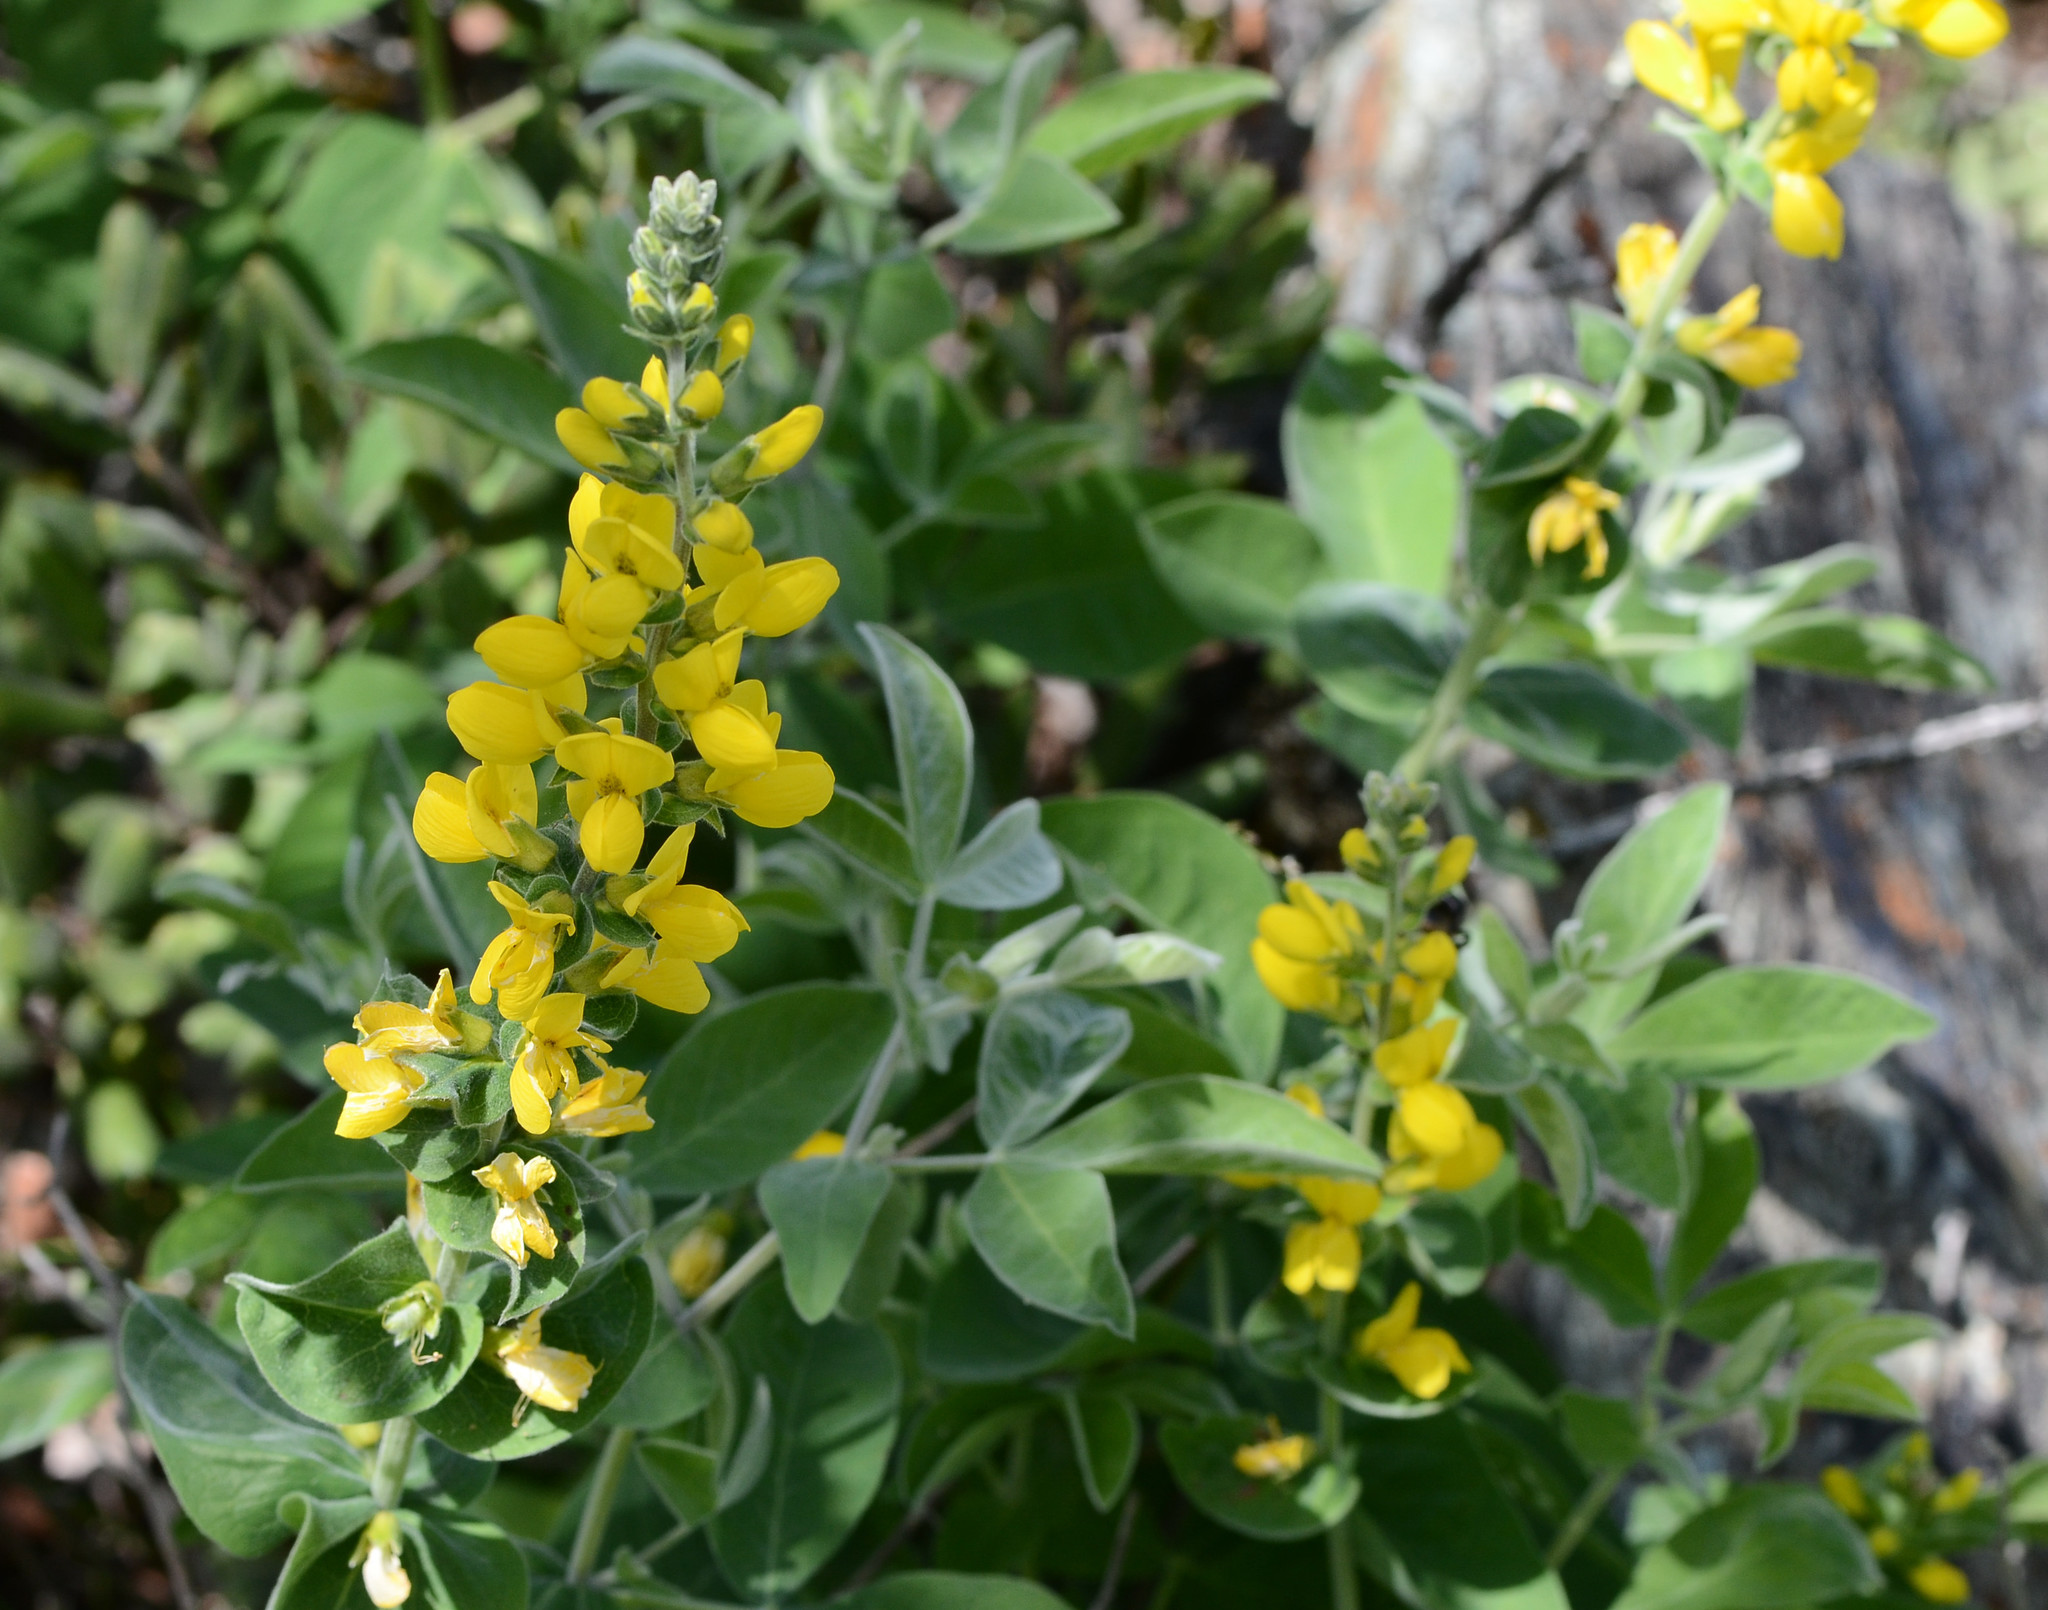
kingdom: Plantae
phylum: Tracheophyta
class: Magnoliopsida
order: Fabales
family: Fabaceae
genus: Thermopsis
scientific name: Thermopsis californica
